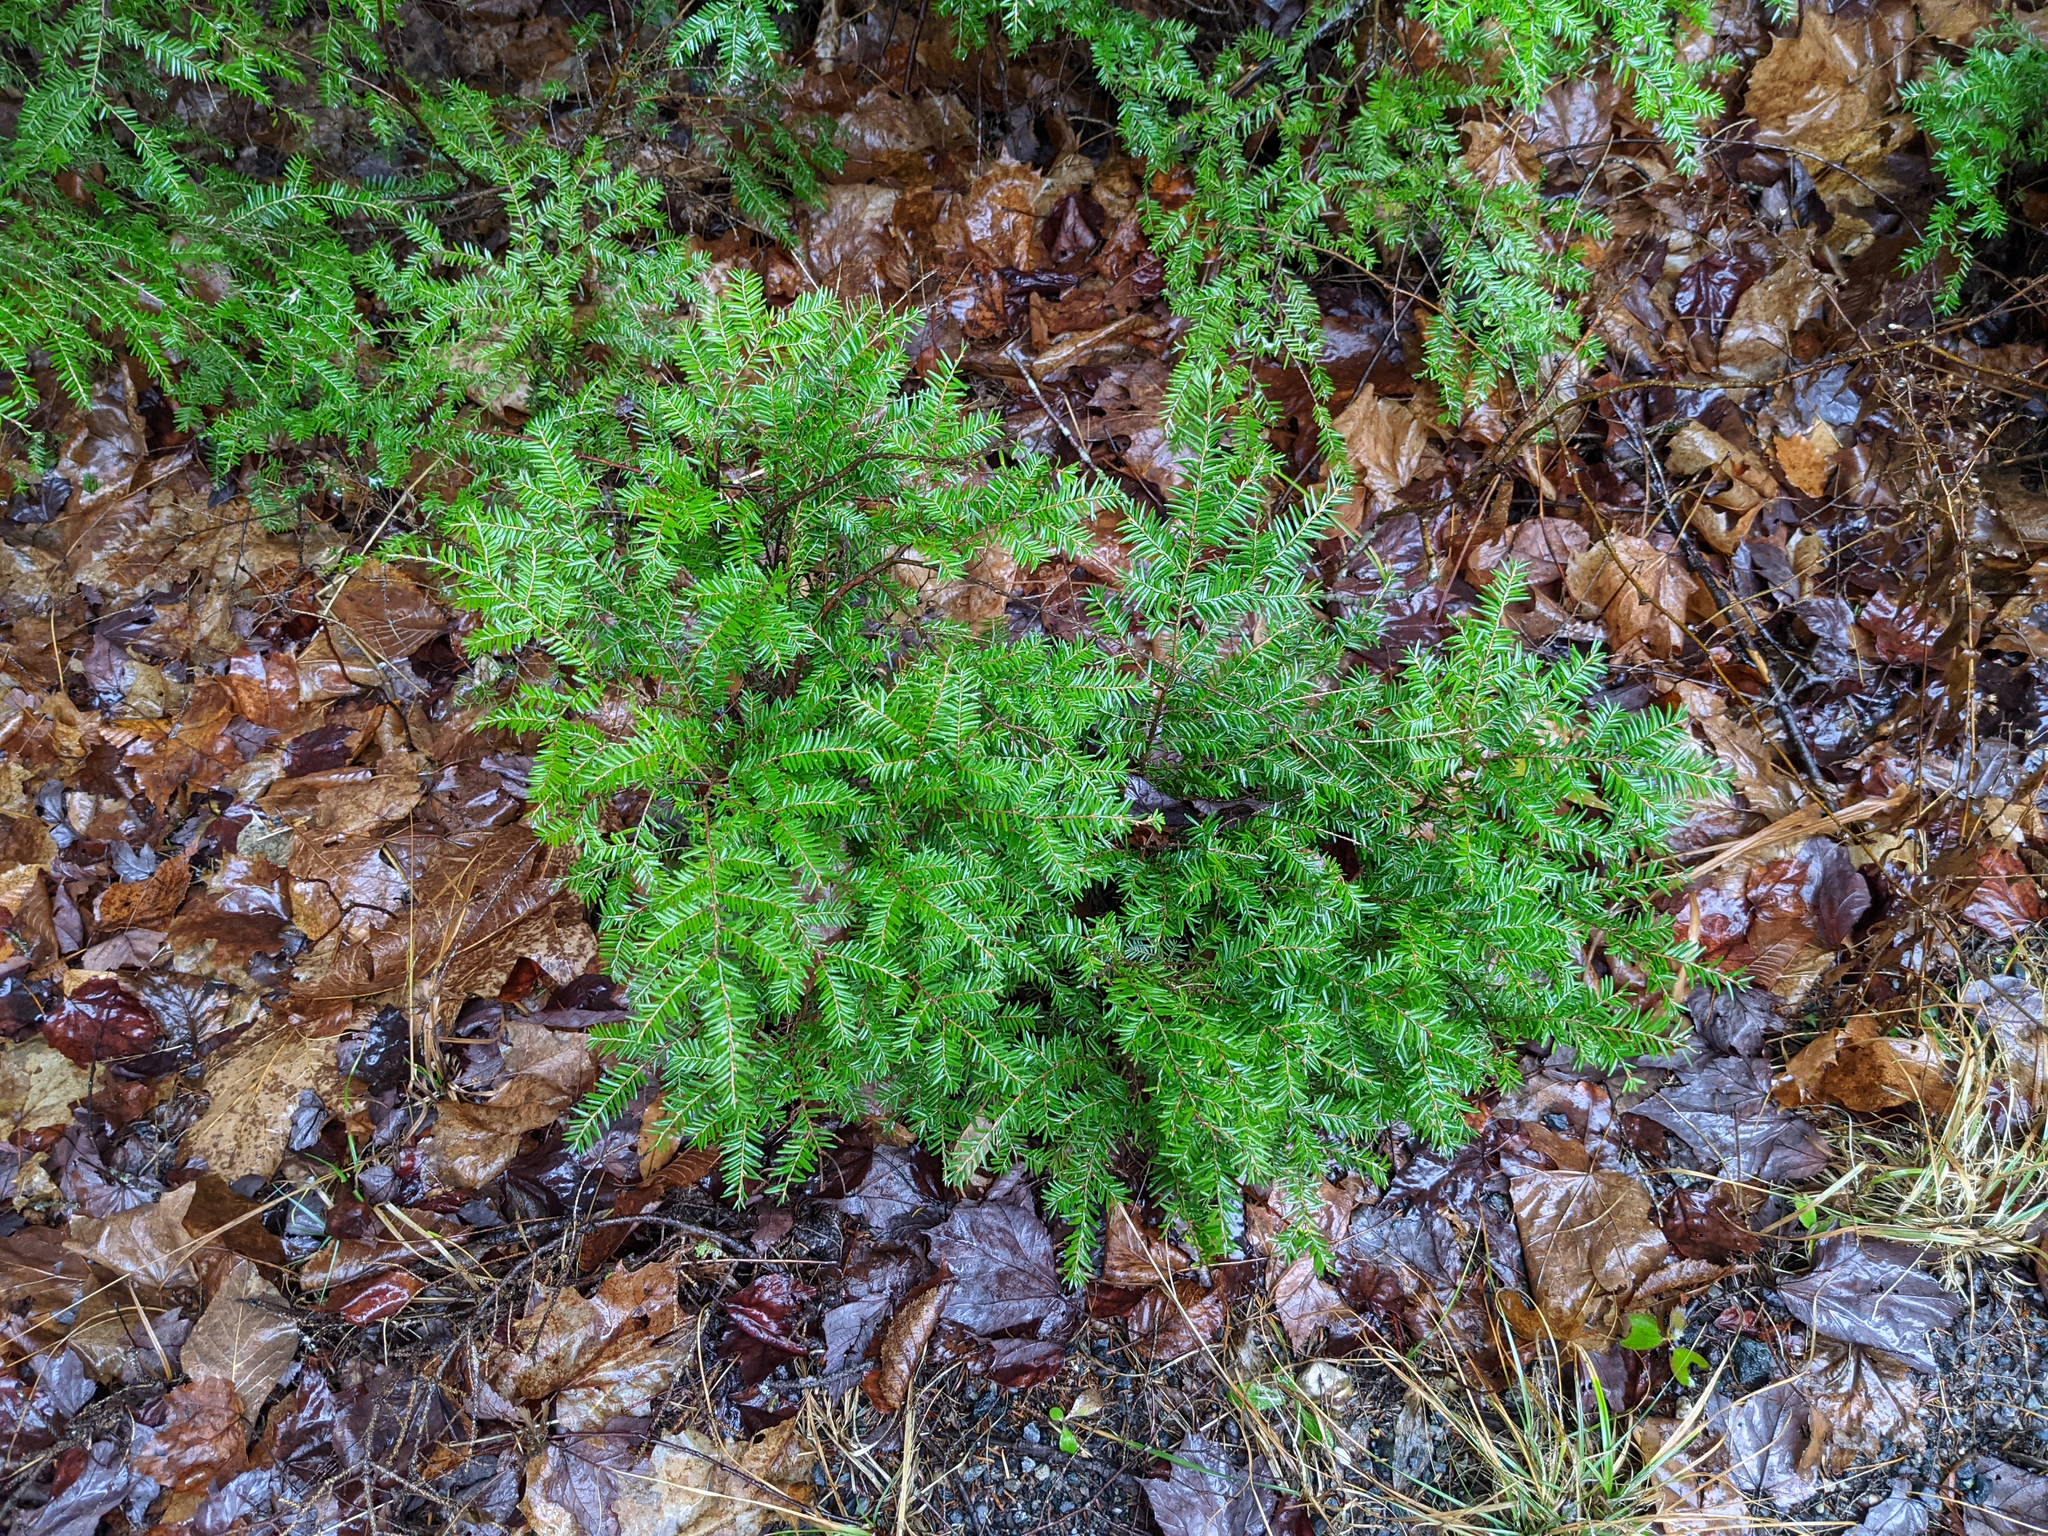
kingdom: Plantae
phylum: Tracheophyta
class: Pinopsida
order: Pinales
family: Pinaceae
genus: Tsuga
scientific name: Tsuga canadensis
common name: Eastern hemlock
